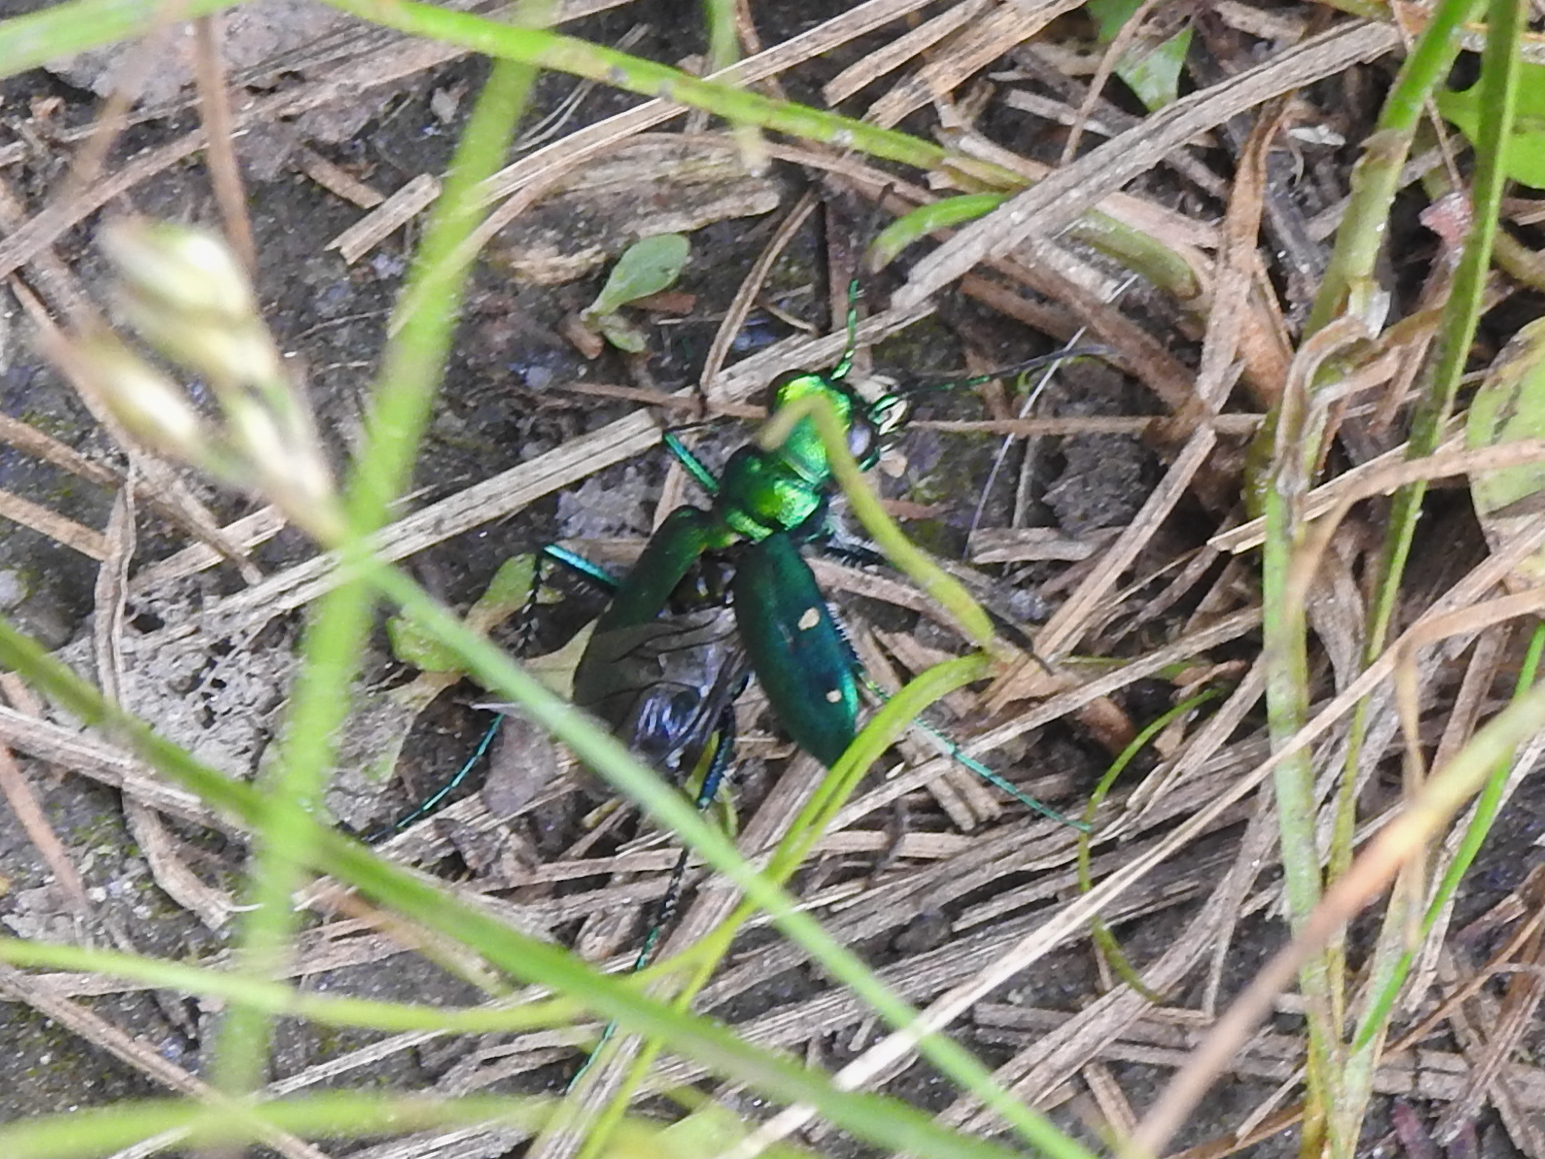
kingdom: Animalia
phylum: Arthropoda
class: Insecta
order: Coleoptera
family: Carabidae
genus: Cicindela
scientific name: Cicindela sexguttata
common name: Six-spotted tiger beetle
